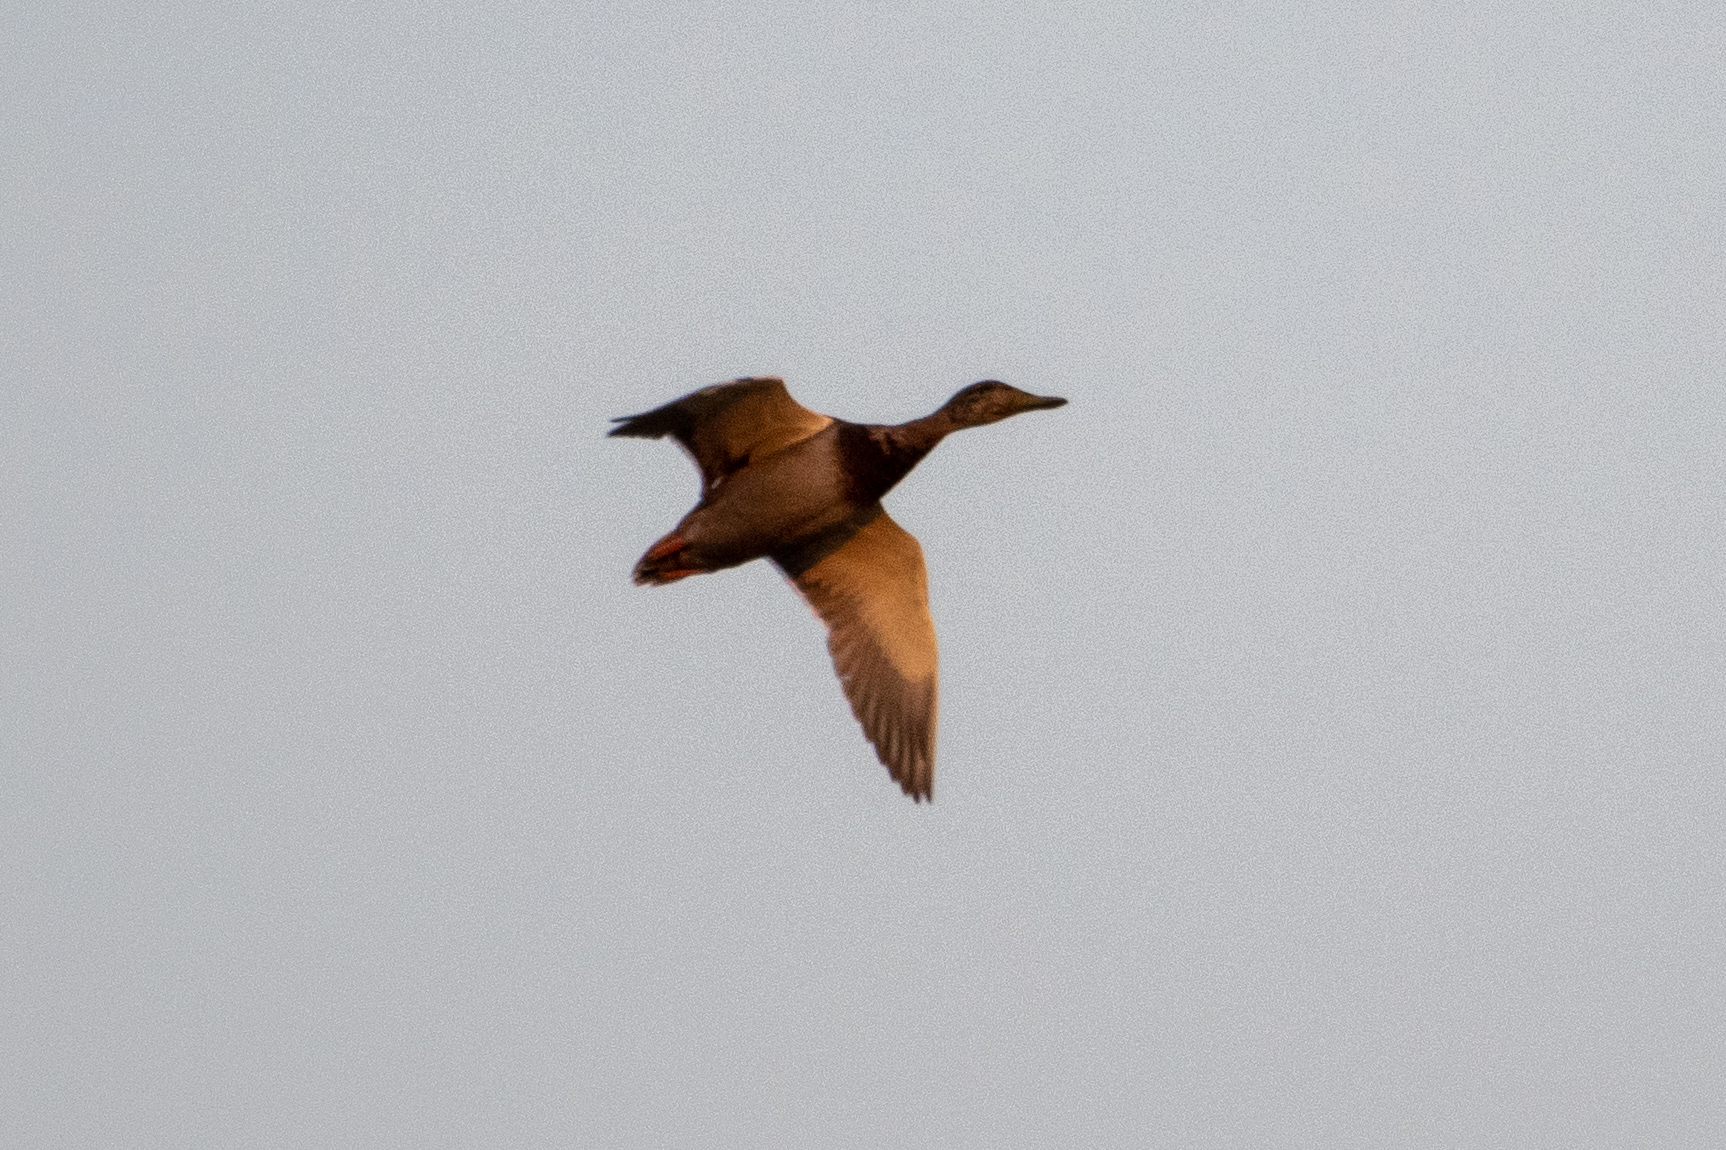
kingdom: Animalia
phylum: Chordata
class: Aves
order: Anseriformes
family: Anatidae
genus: Anas
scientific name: Anas platyrhynchos
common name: Mallard
